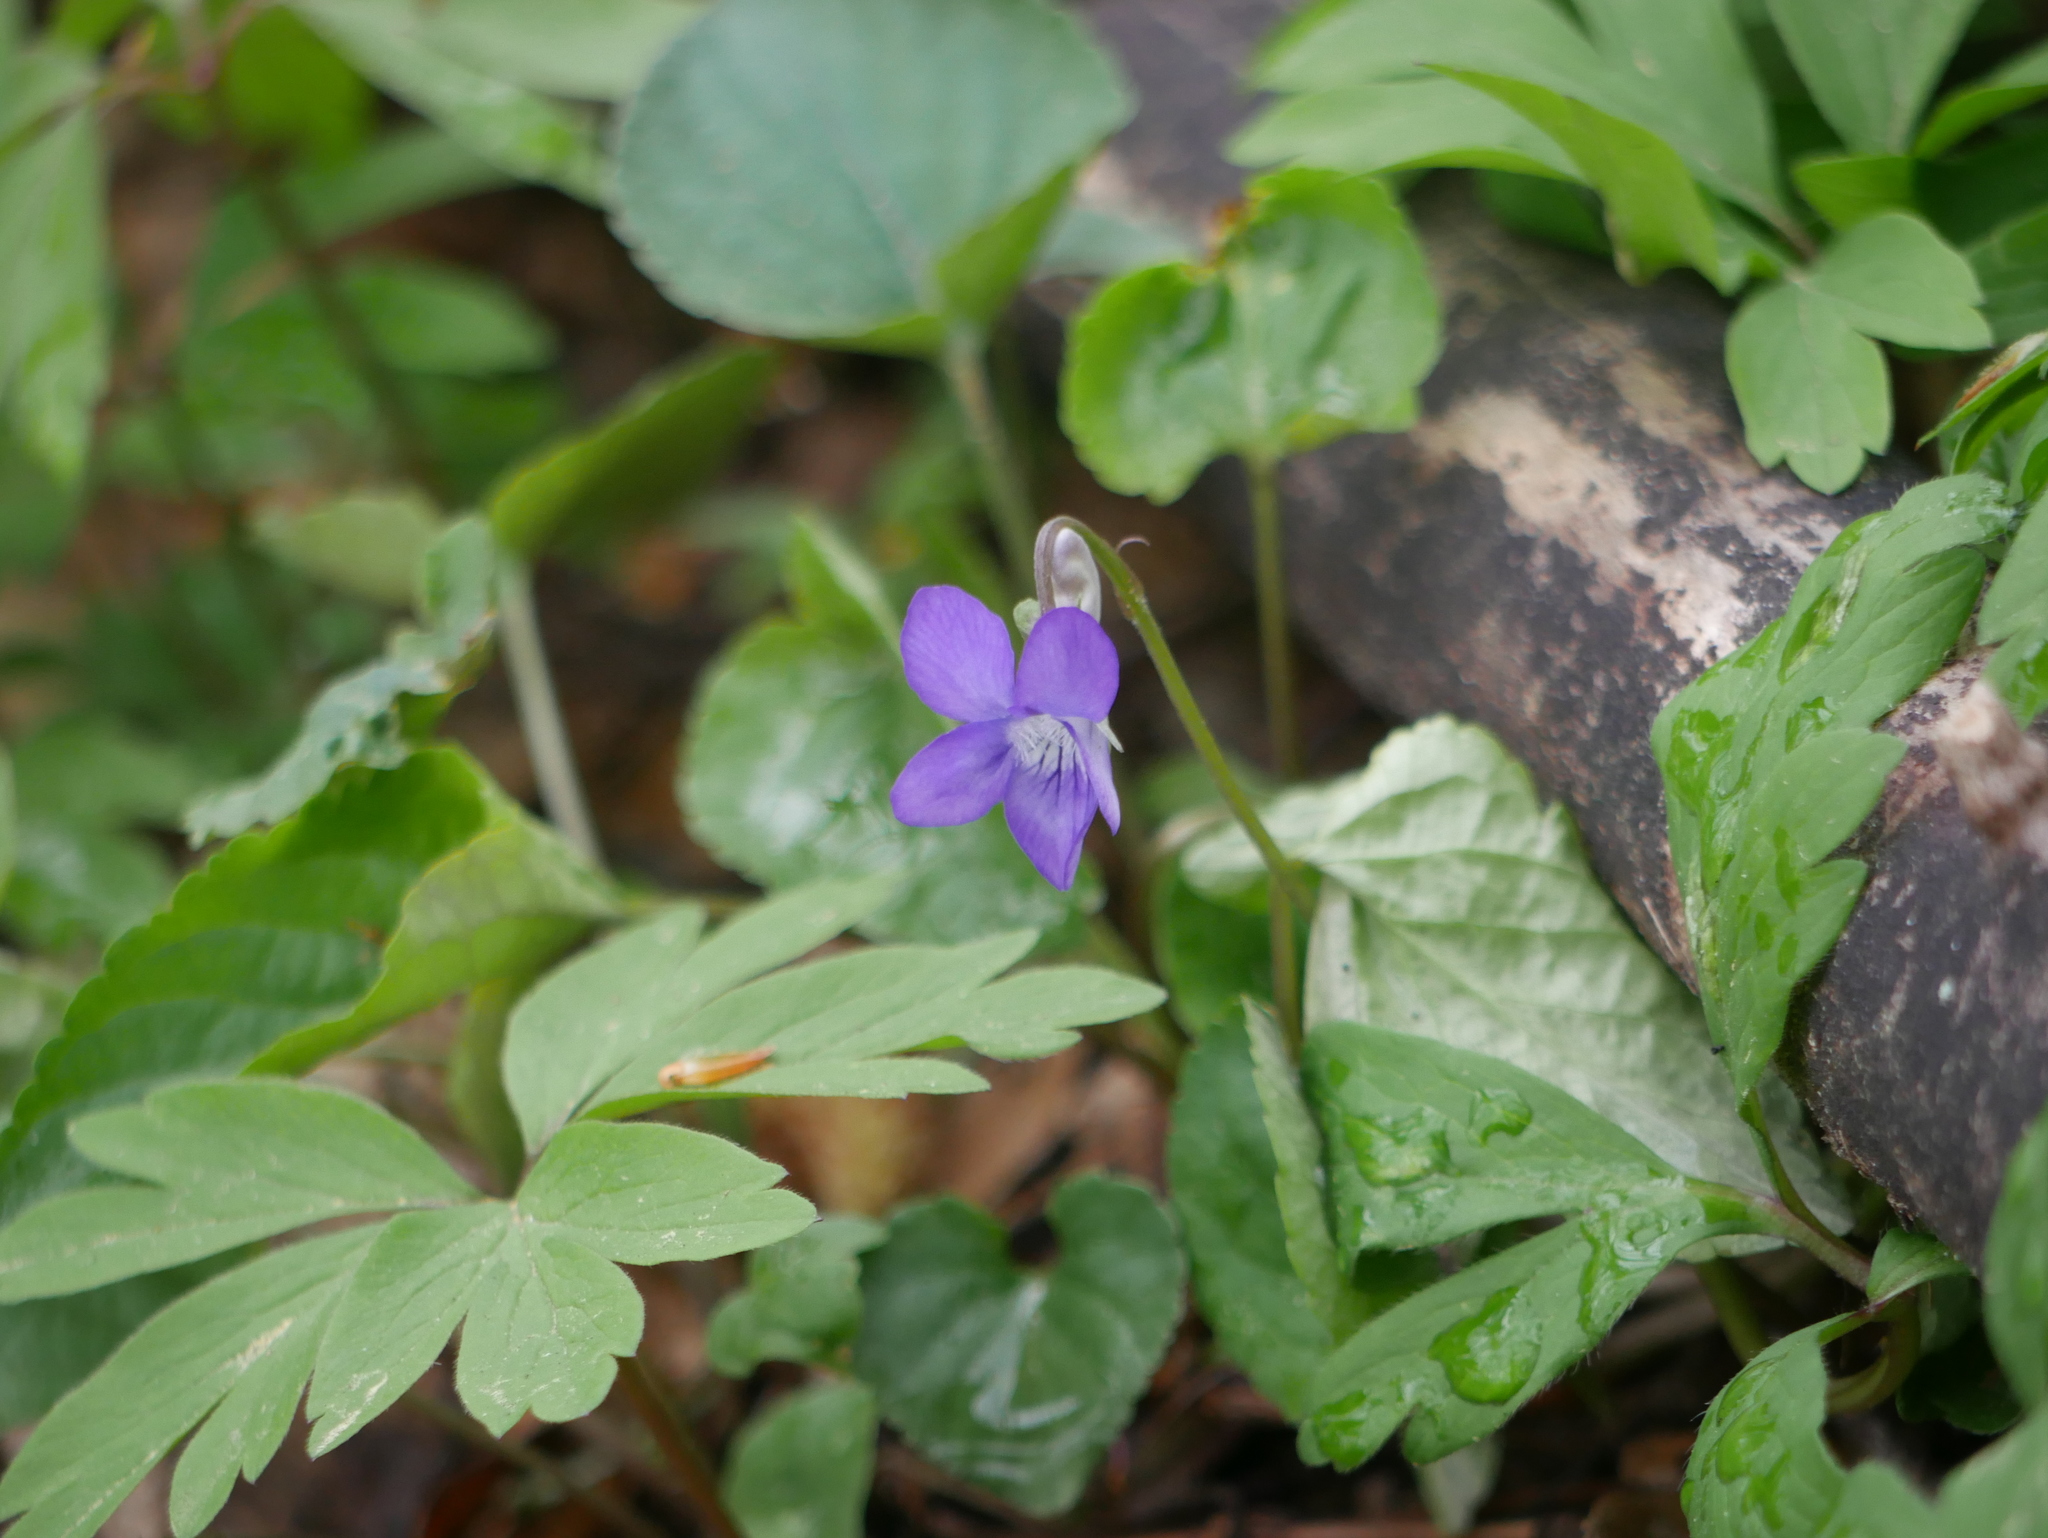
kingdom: Plantae
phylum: Tracheophyta
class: Magnoliopsida
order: Malpighiales
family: Violaceae
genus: Viola
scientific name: Viola riviniana
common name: Common dog-violet
